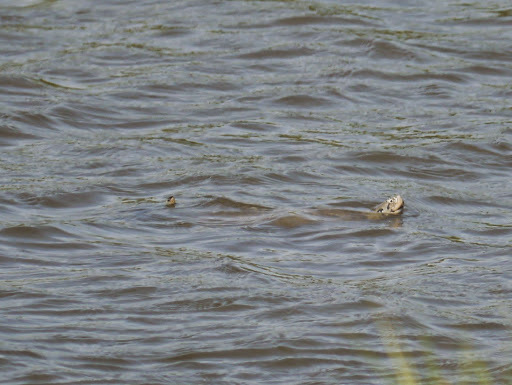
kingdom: Animalia
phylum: Chordata
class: Testudines
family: Emydidae
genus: Malaclemys
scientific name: Malaclemys terrapin
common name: Diamondback terrapin
